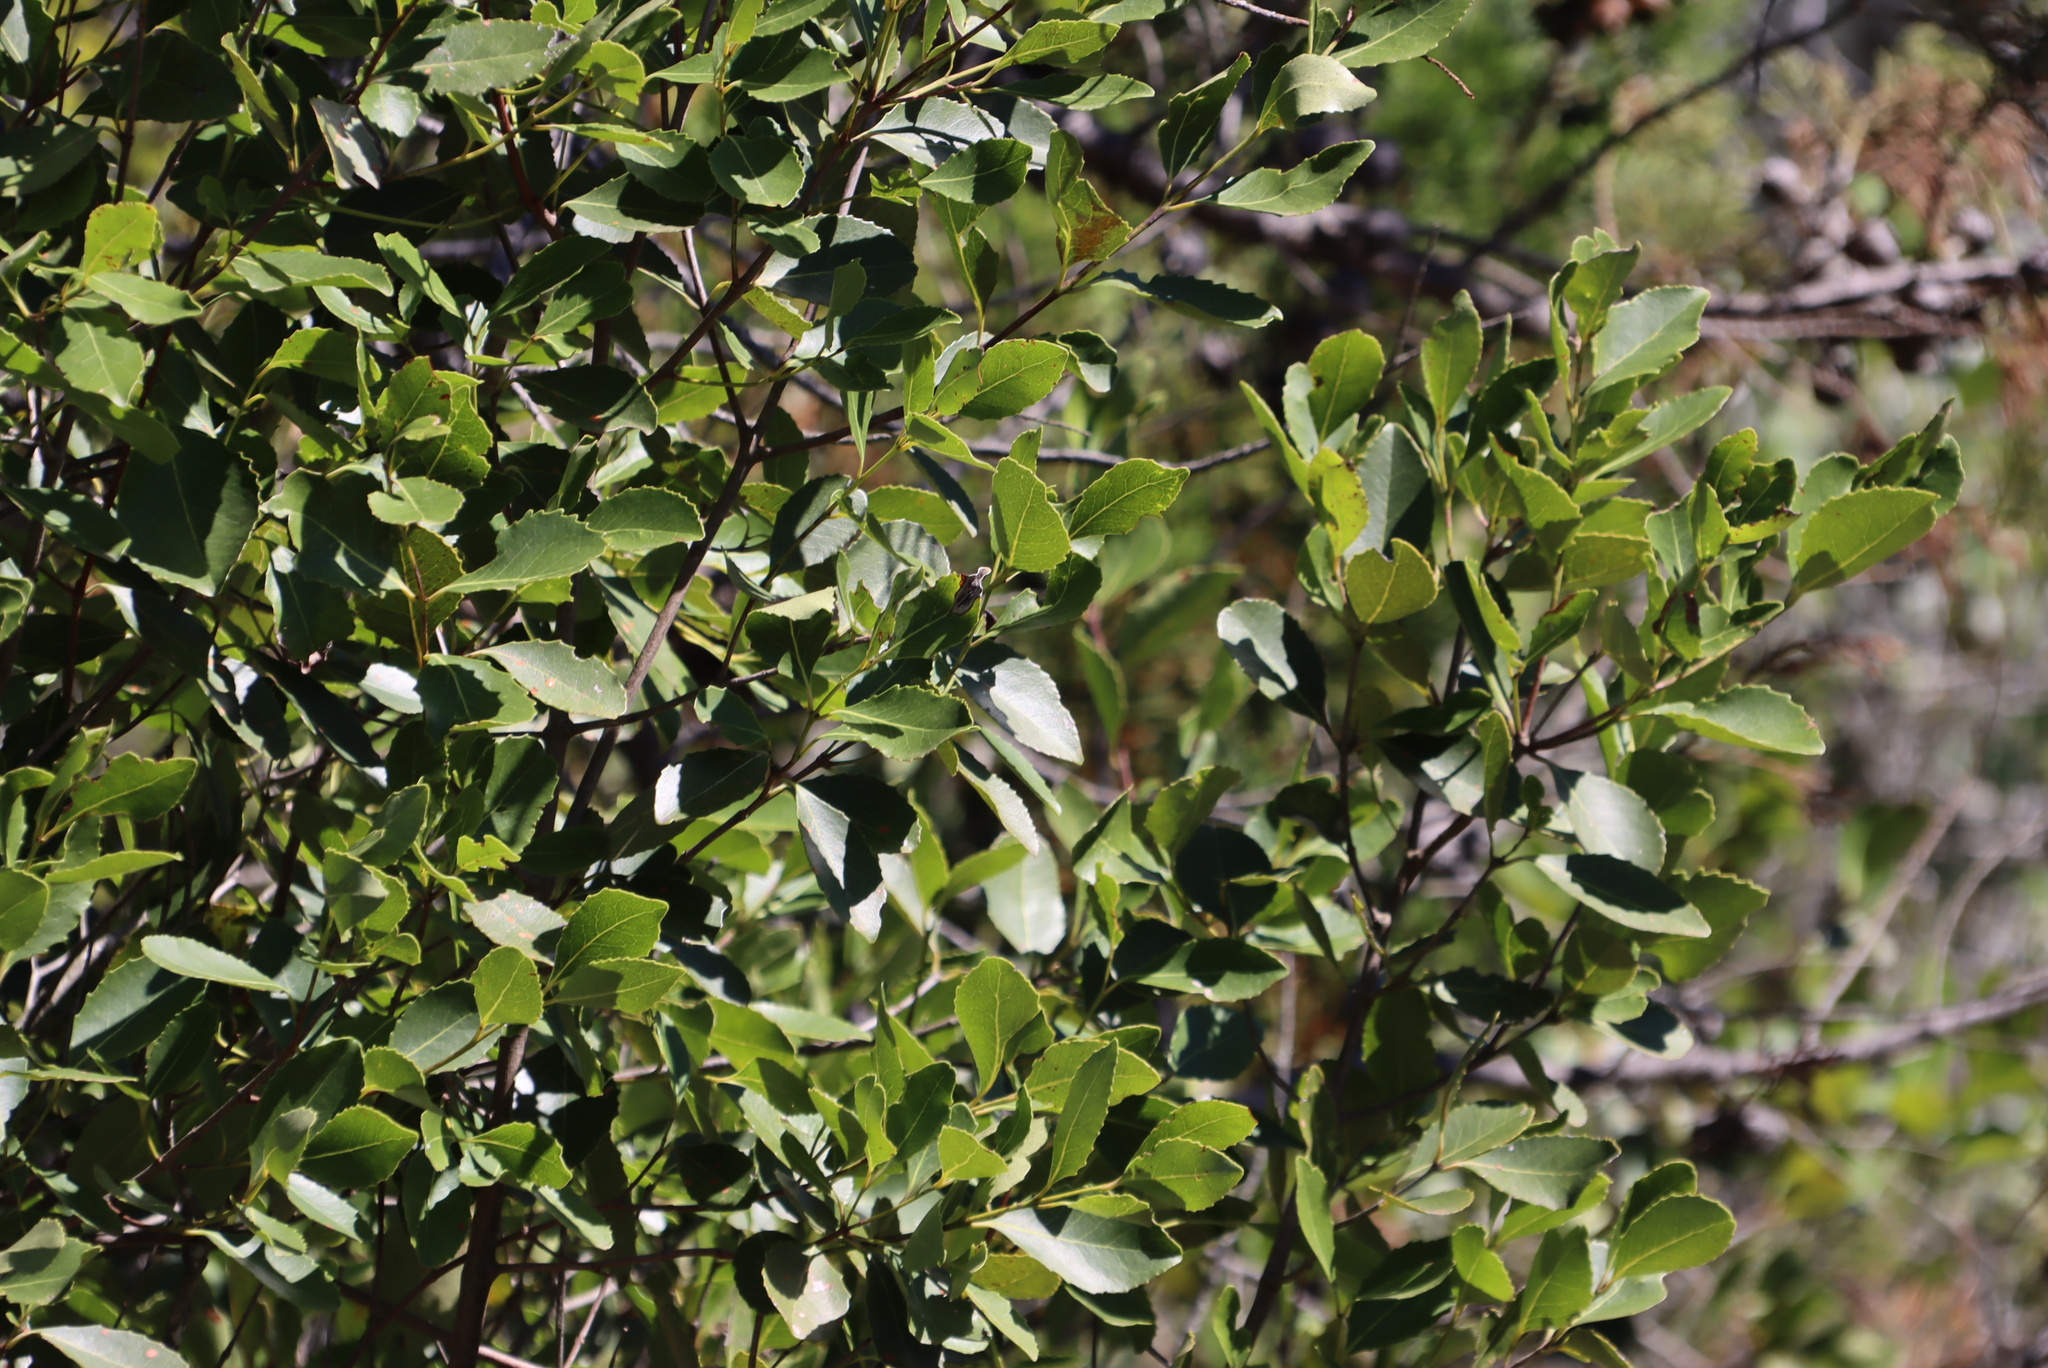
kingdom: Plantae
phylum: Tracheophyta
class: Magnoliopsida
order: Celastrales
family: Celastraceae
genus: Elaeodendron
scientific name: Elaeodendron schinoides
